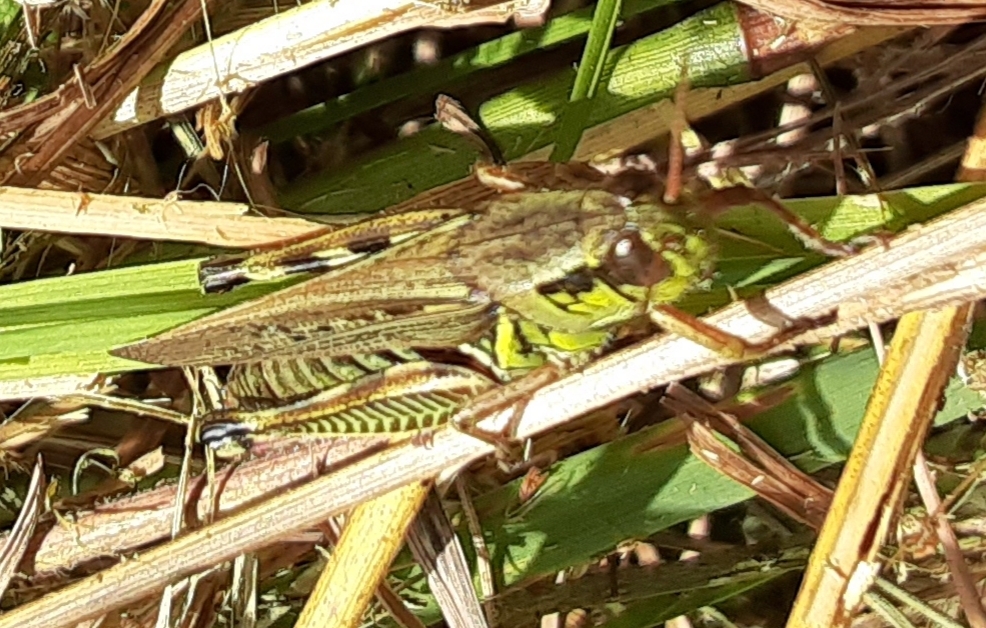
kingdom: Animalia
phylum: Arthropoda
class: Insecta
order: Orthoptera
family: Acrididae
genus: Melanoplus
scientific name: Melanoplus femurrubrum
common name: Red-legged grasshopper
